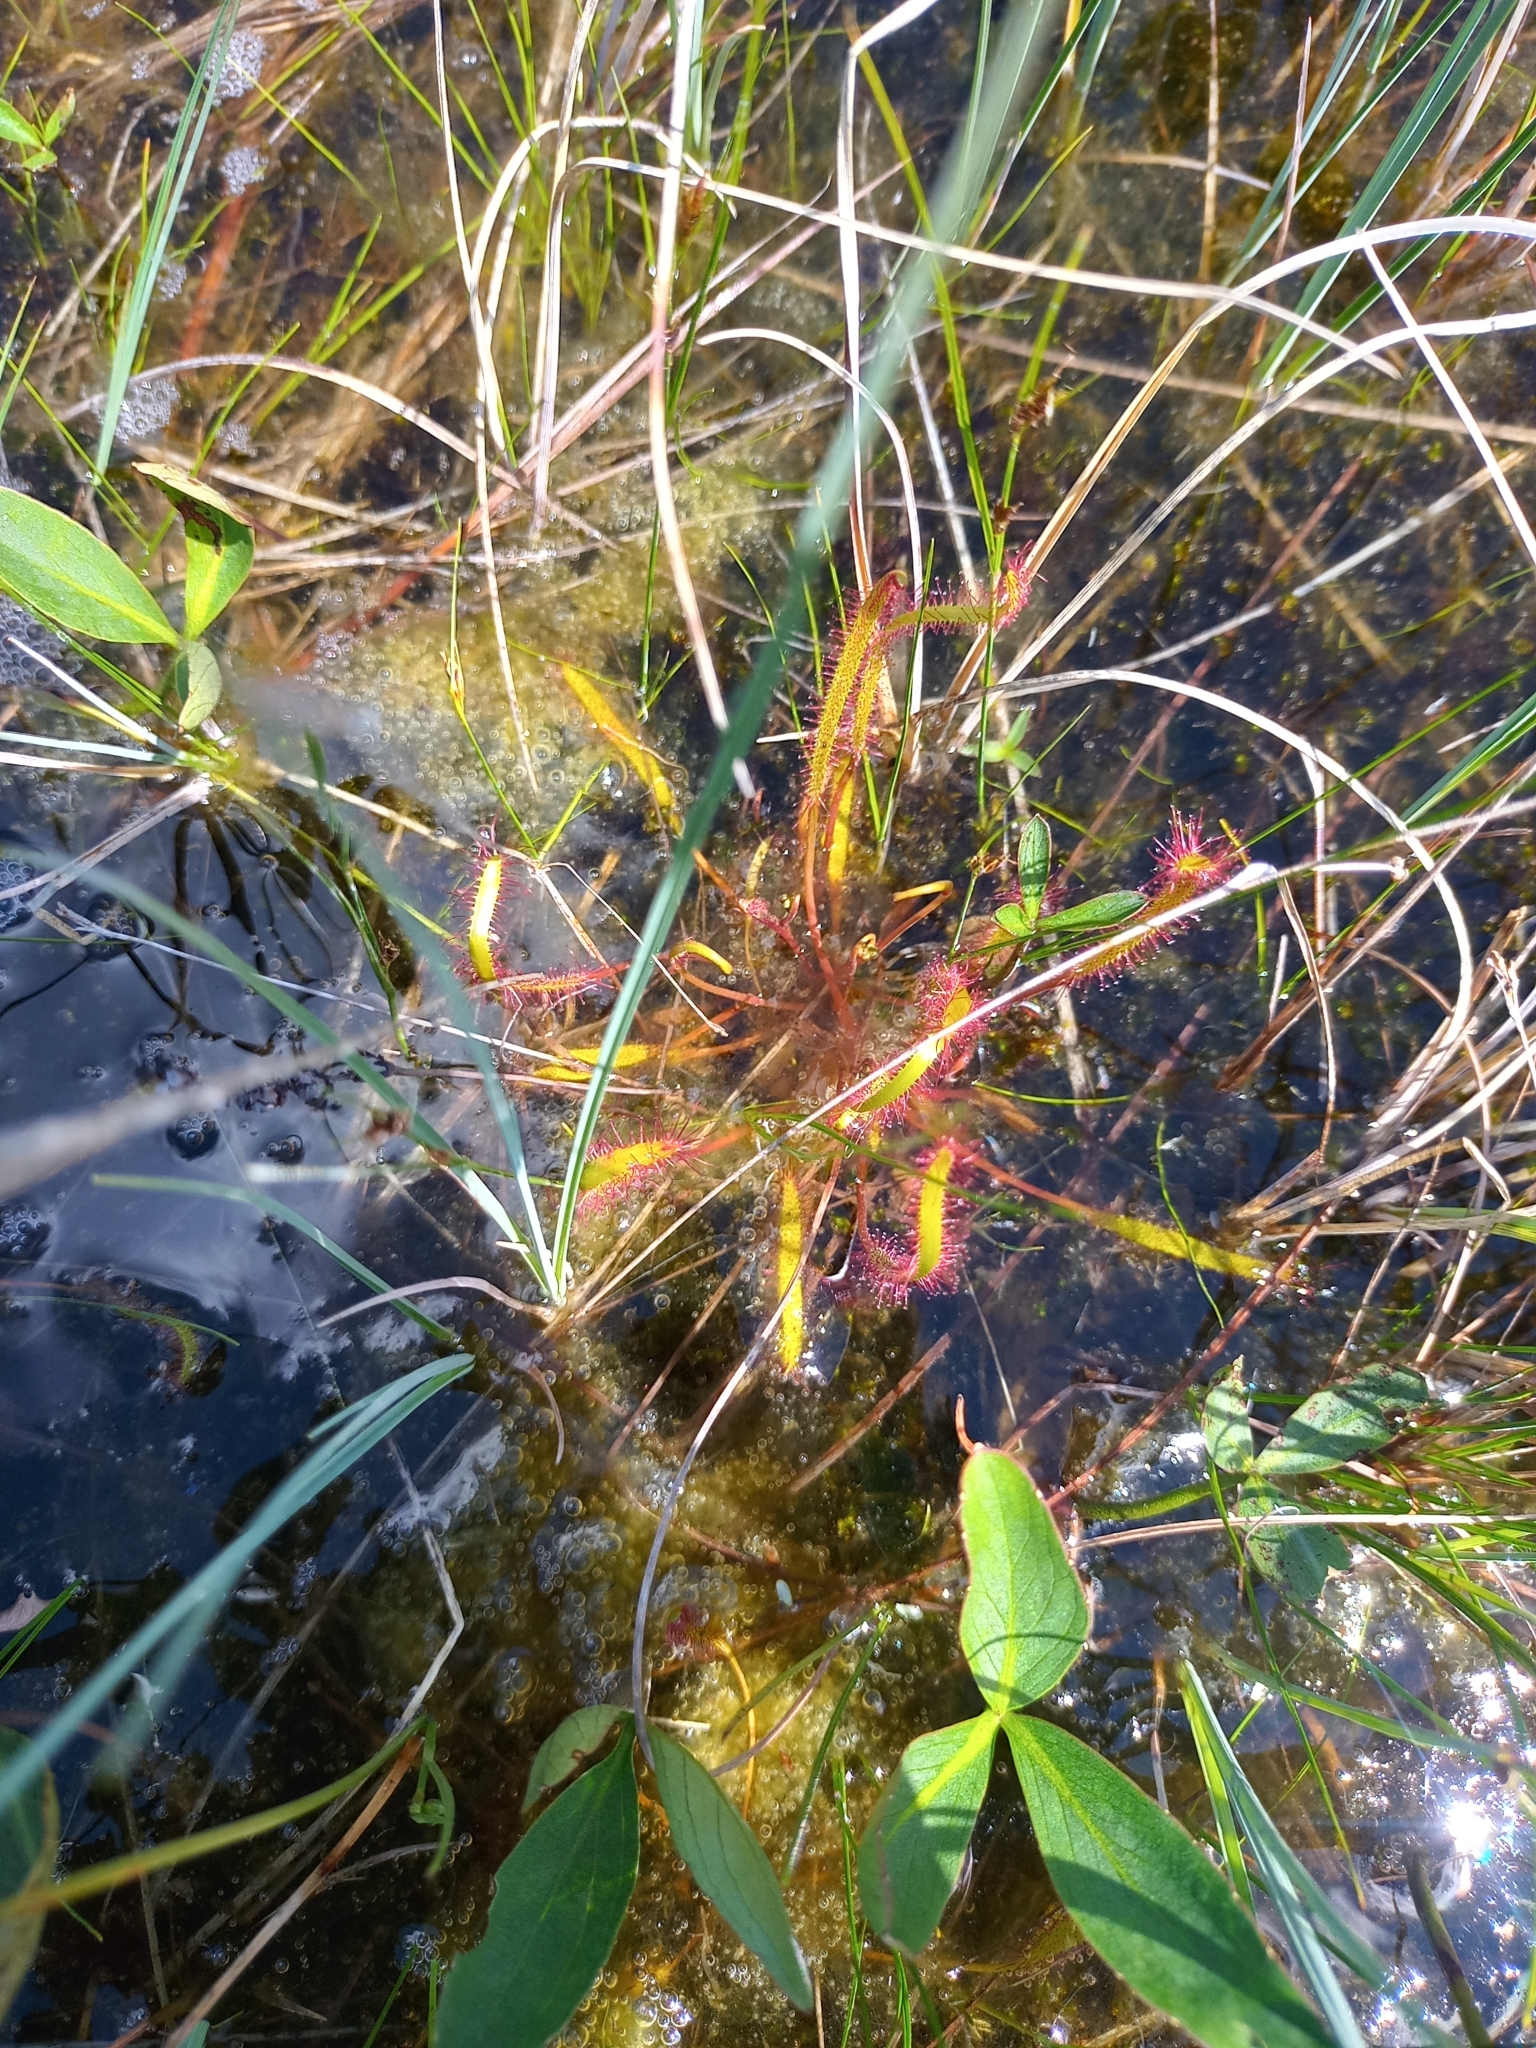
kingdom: Plantae
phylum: Tracheophyta
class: Magnoliopsida
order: Caryophyllales
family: Droseraceae
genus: Drosera
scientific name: Drosera linearis
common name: Linear-leaved sundew
